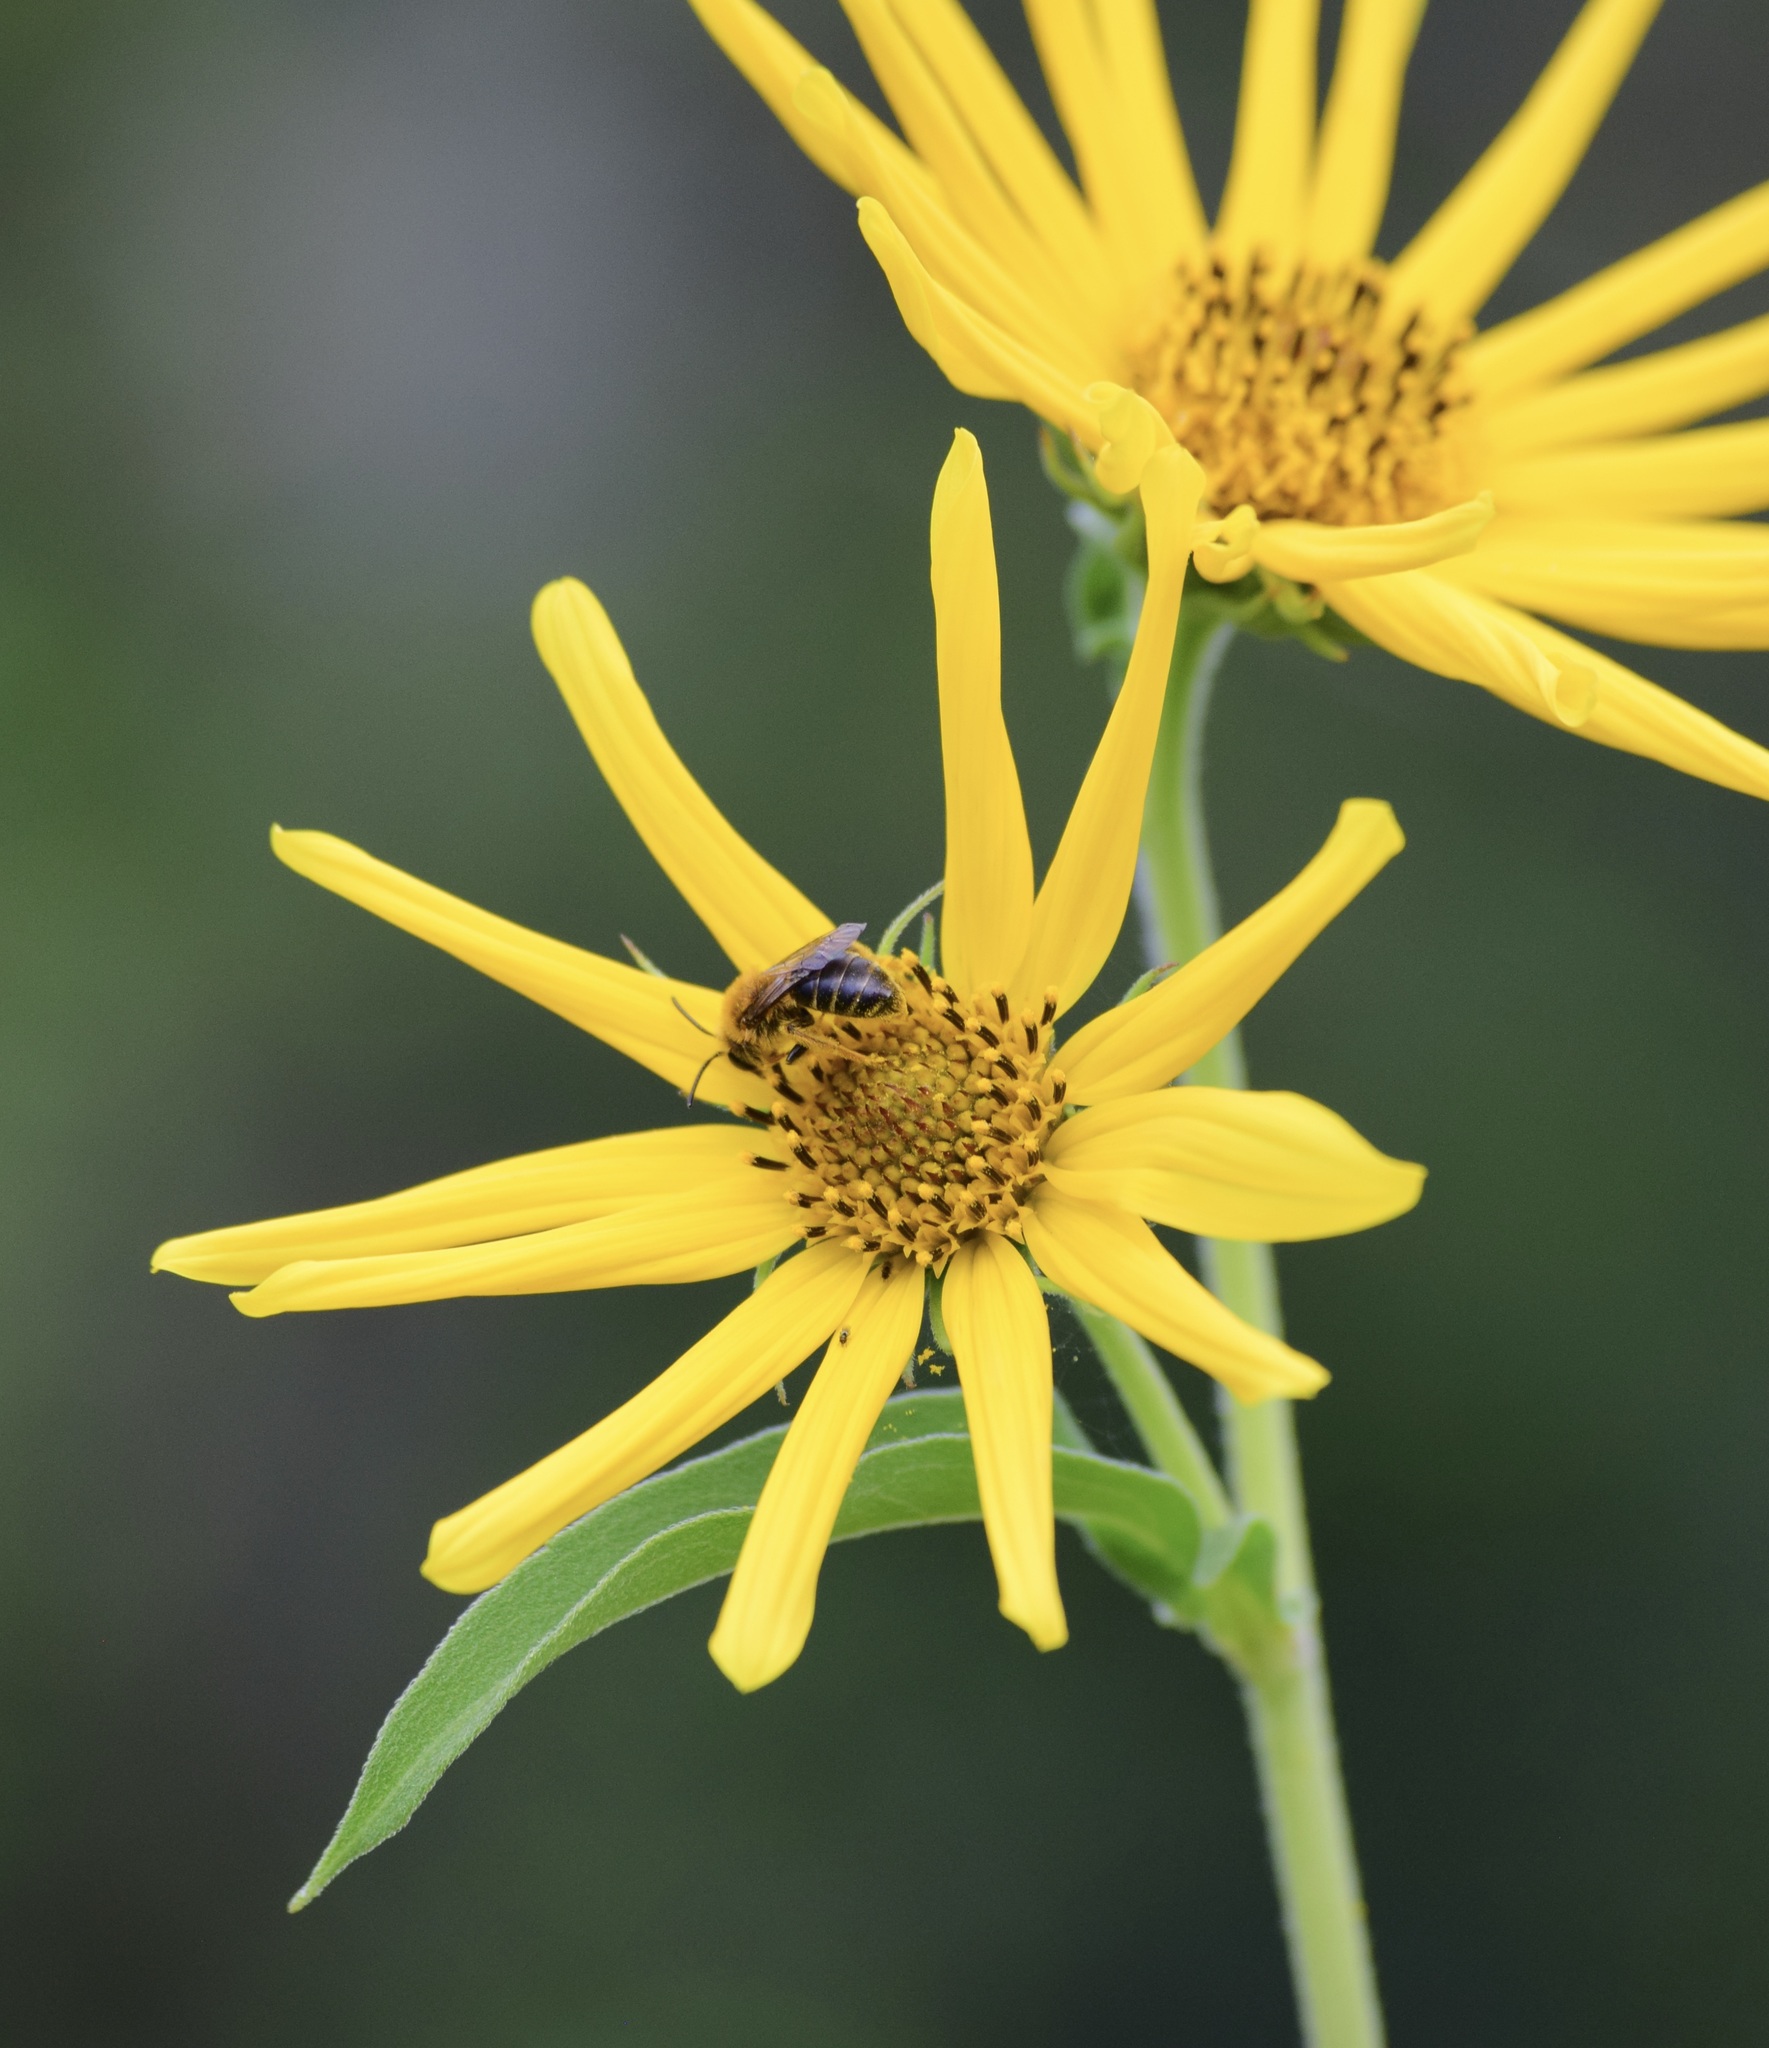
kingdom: Animalia
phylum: Arthropoda
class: Insecta
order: Hymenoptera
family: Andrenidae
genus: Andrena
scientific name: Andrena helianthi
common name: Sunflower mining bee
